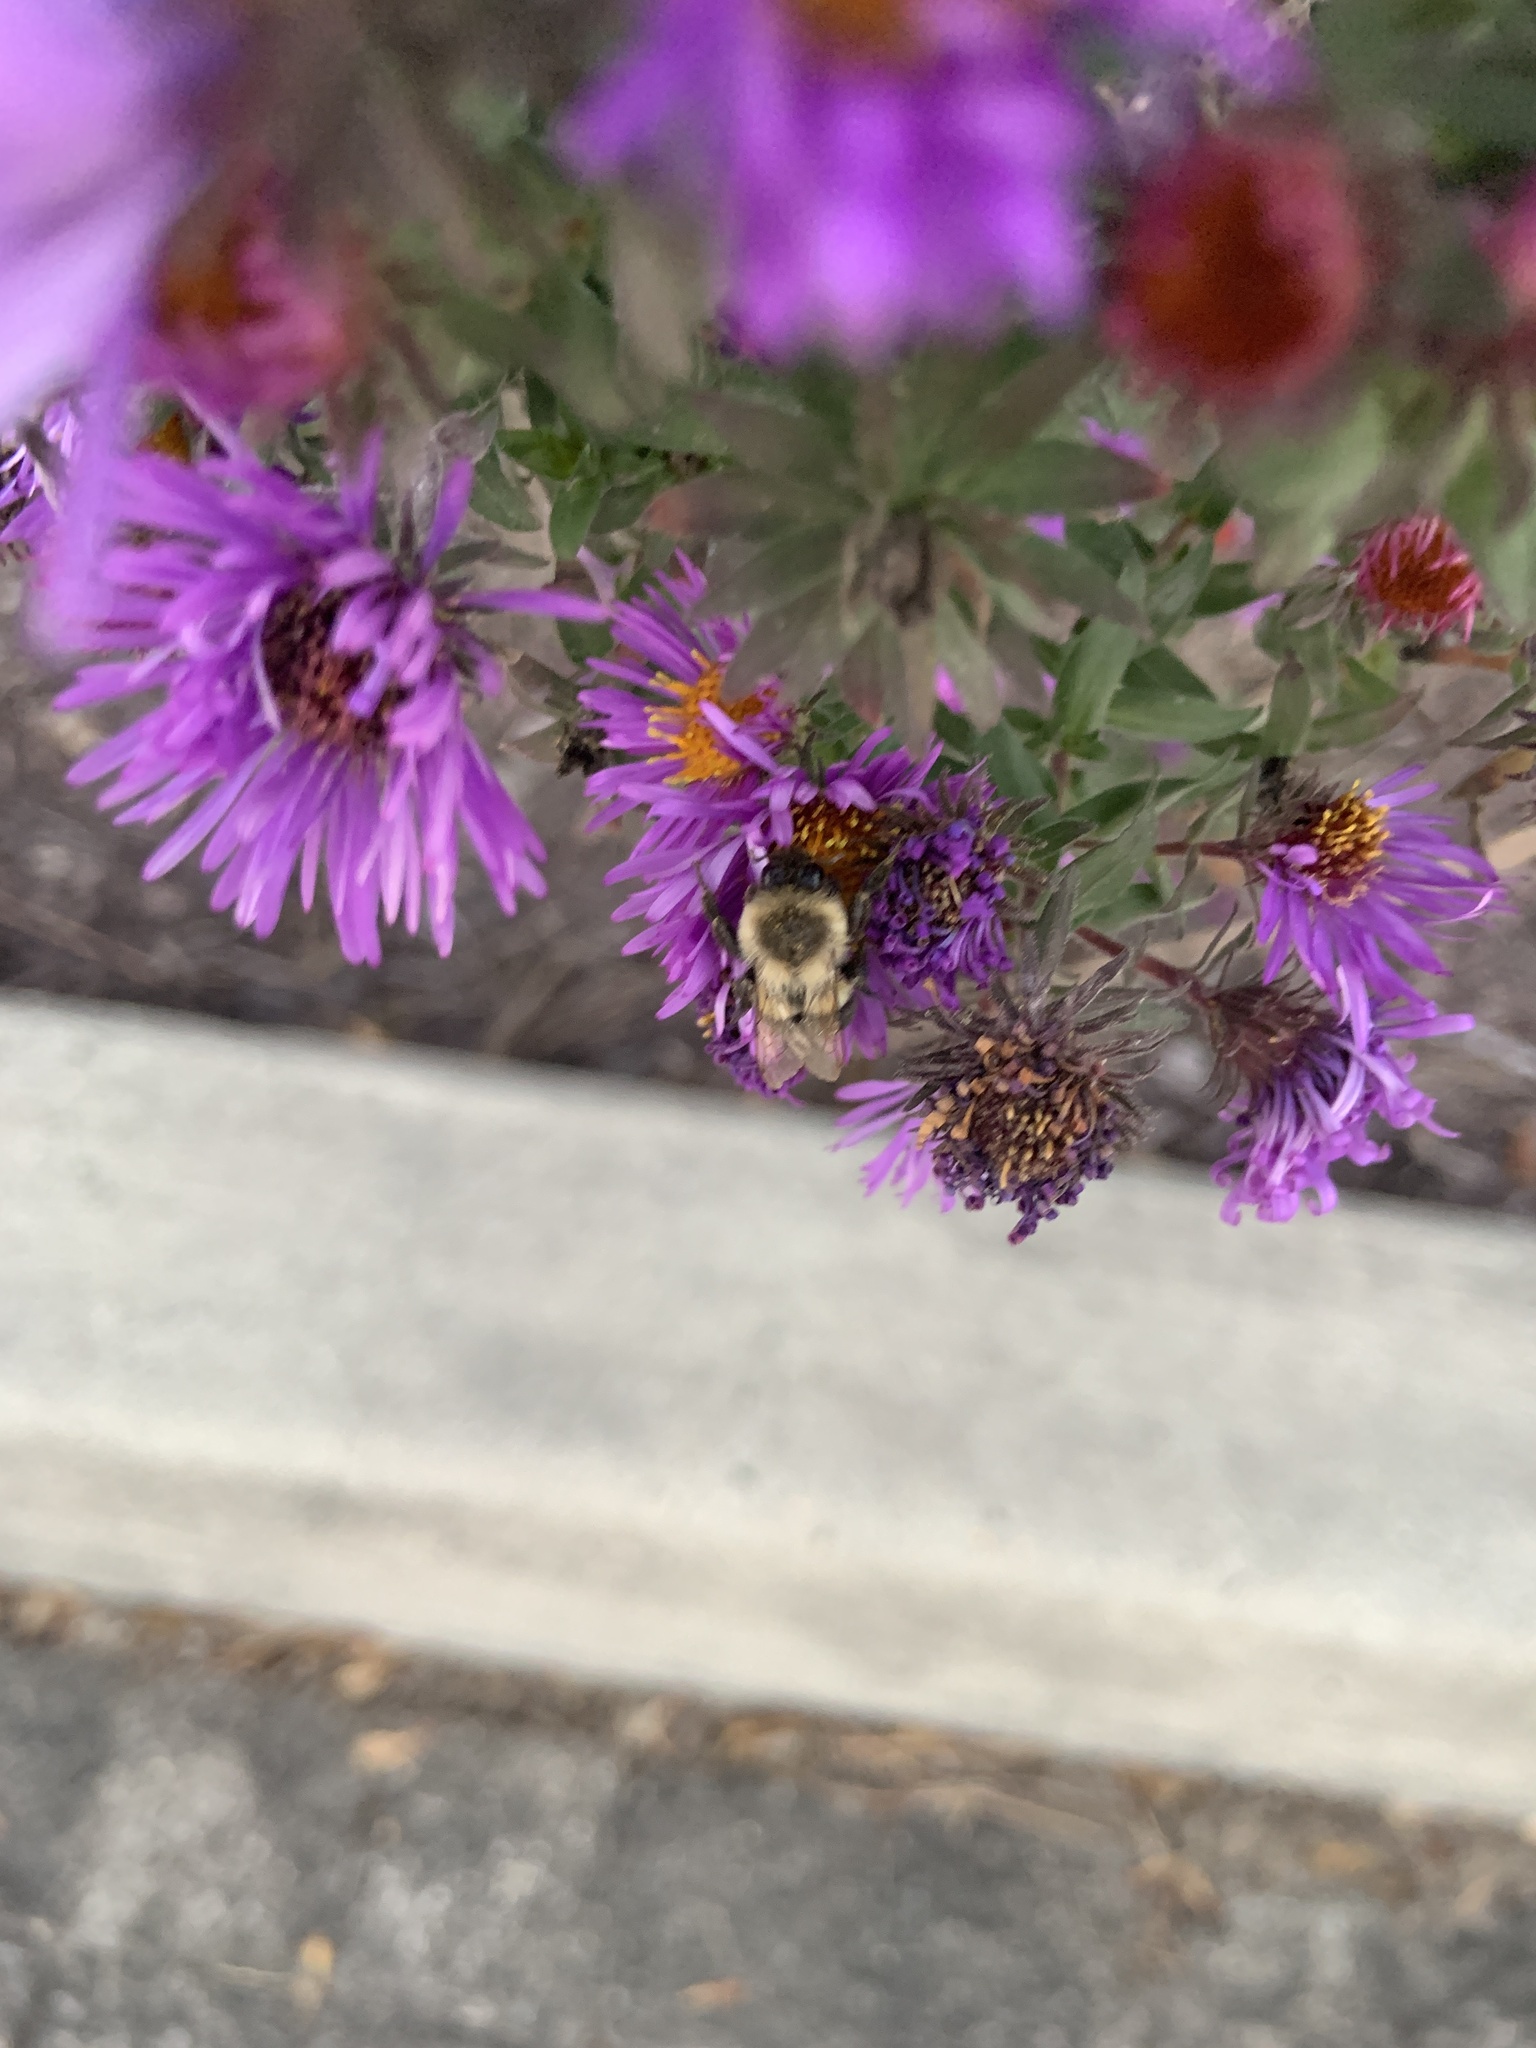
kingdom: Animalia
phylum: Arthropoda
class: Insecta
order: Hymenoptera
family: Apidae
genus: Bombus
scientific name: Bombus impatiens
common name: Common eastern bumble bee
